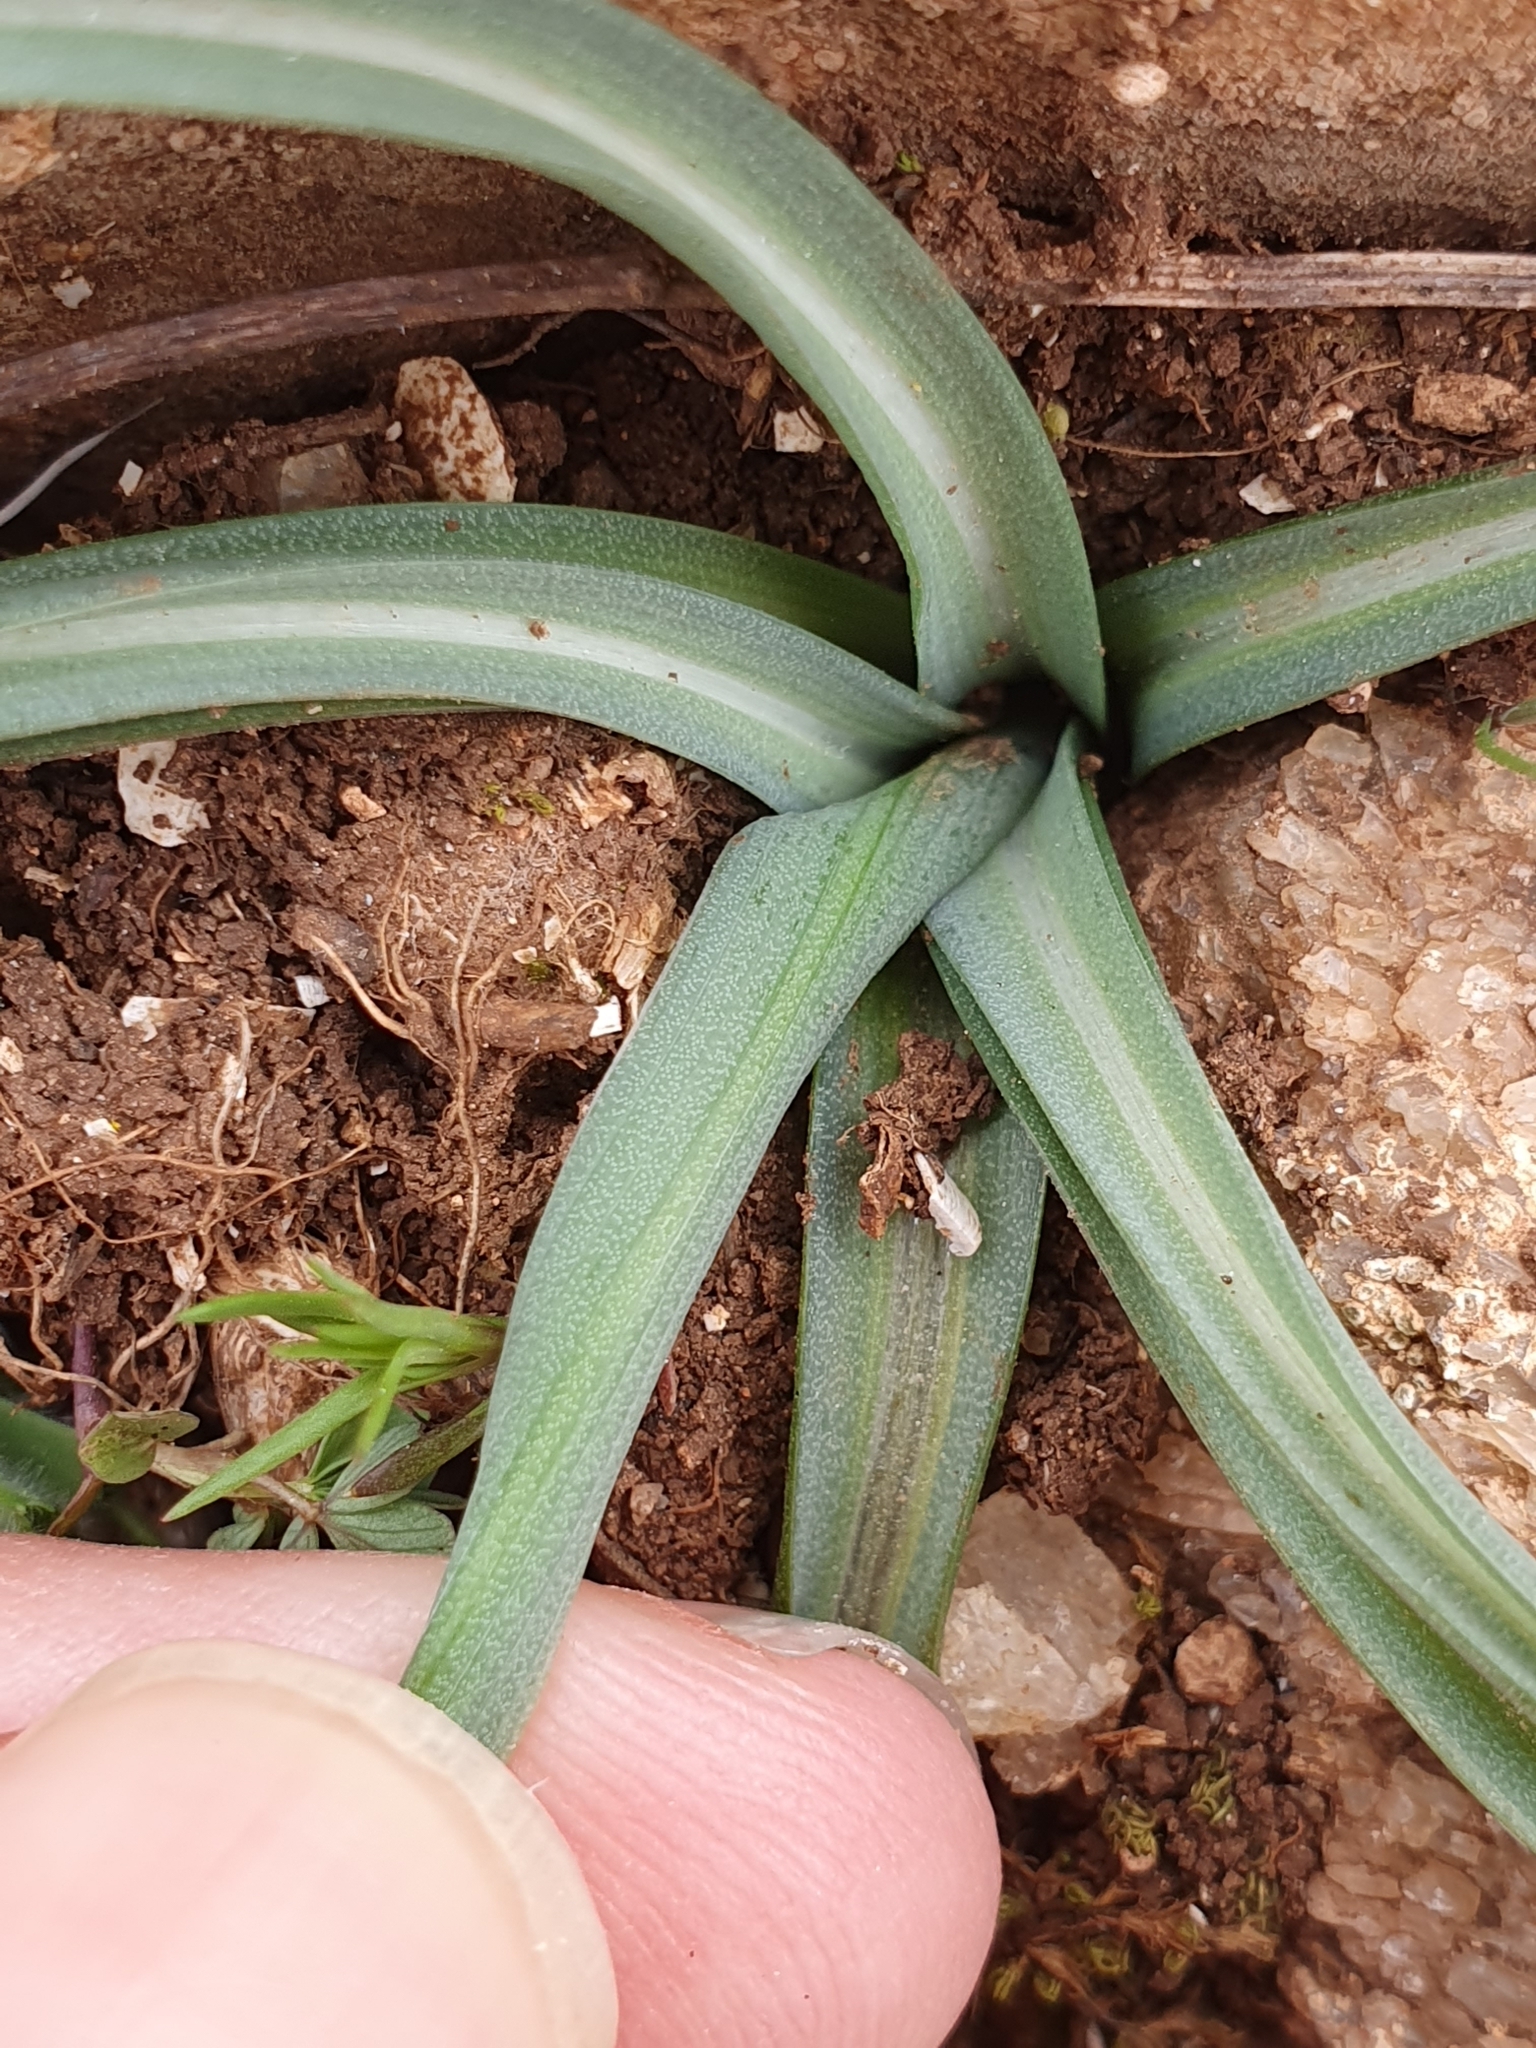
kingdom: Plantae
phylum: Tracheophyta
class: Liliopsida
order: Asparagales
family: Asparagaceae
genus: Ornithogalum
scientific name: Ornithogalum baeticum
